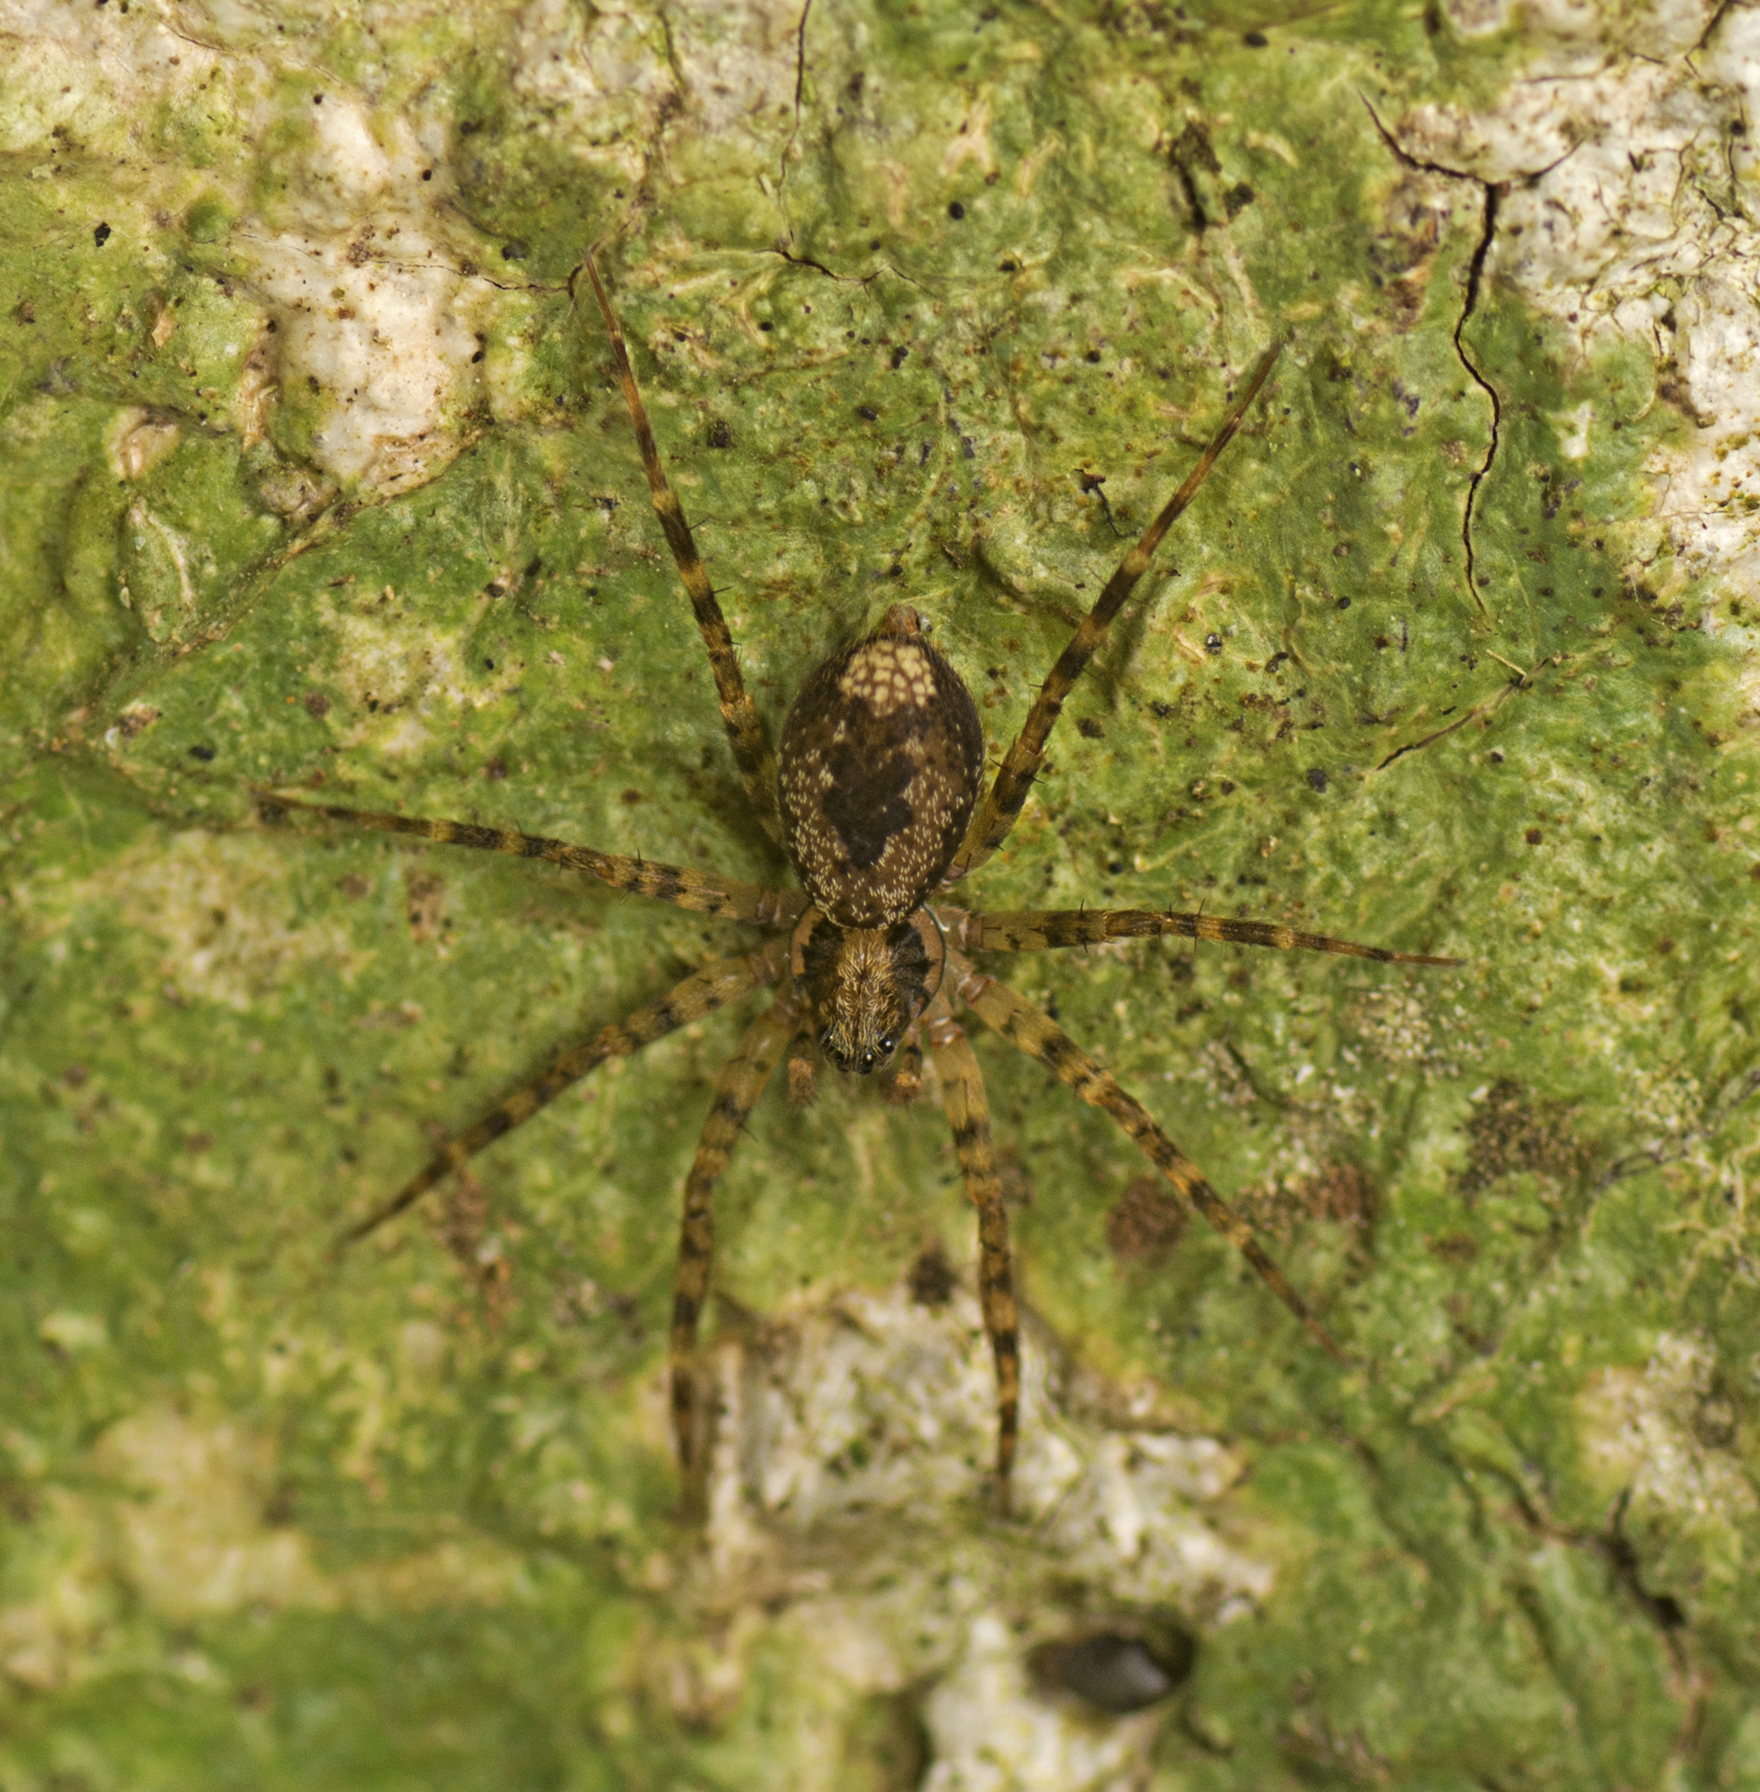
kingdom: Animalia
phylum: Arthropoda
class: Arachnida
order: Araneae
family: Toxopidae
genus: Toxopsoides
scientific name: Toxopsoides erici
